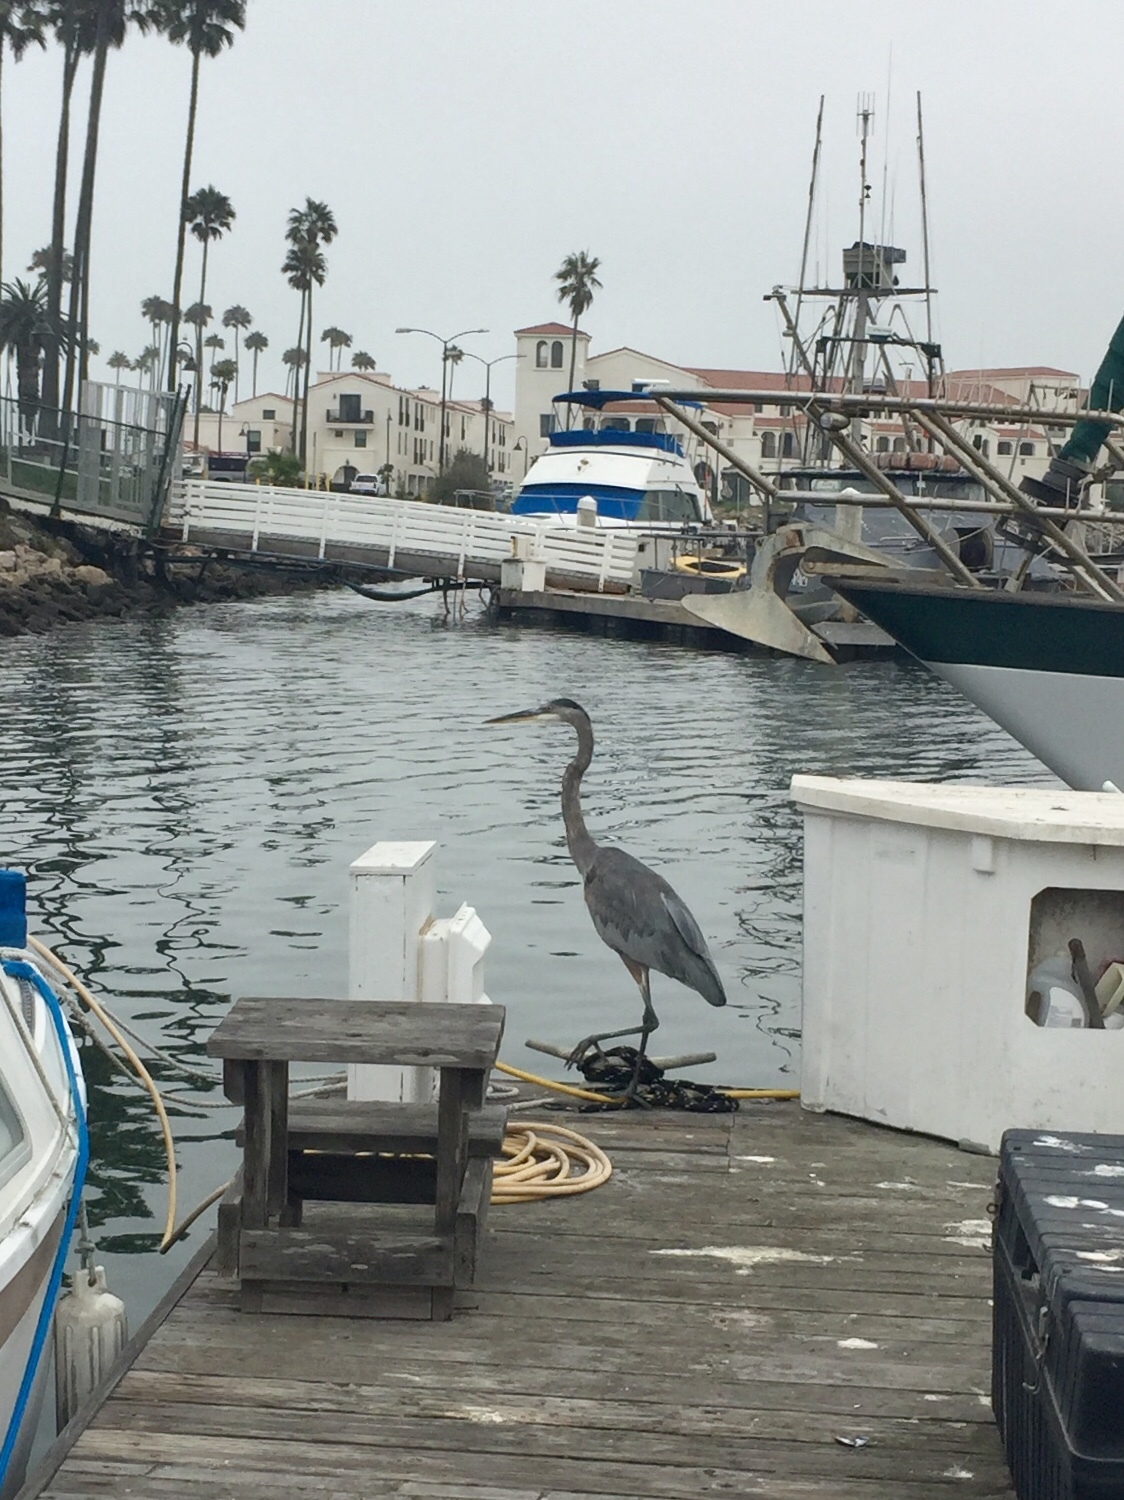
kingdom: Animalia
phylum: Chordata
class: Aves
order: Pelecaniformes
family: Ardeidae
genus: Ardea
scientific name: Ardea herodias
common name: Great blue heron
